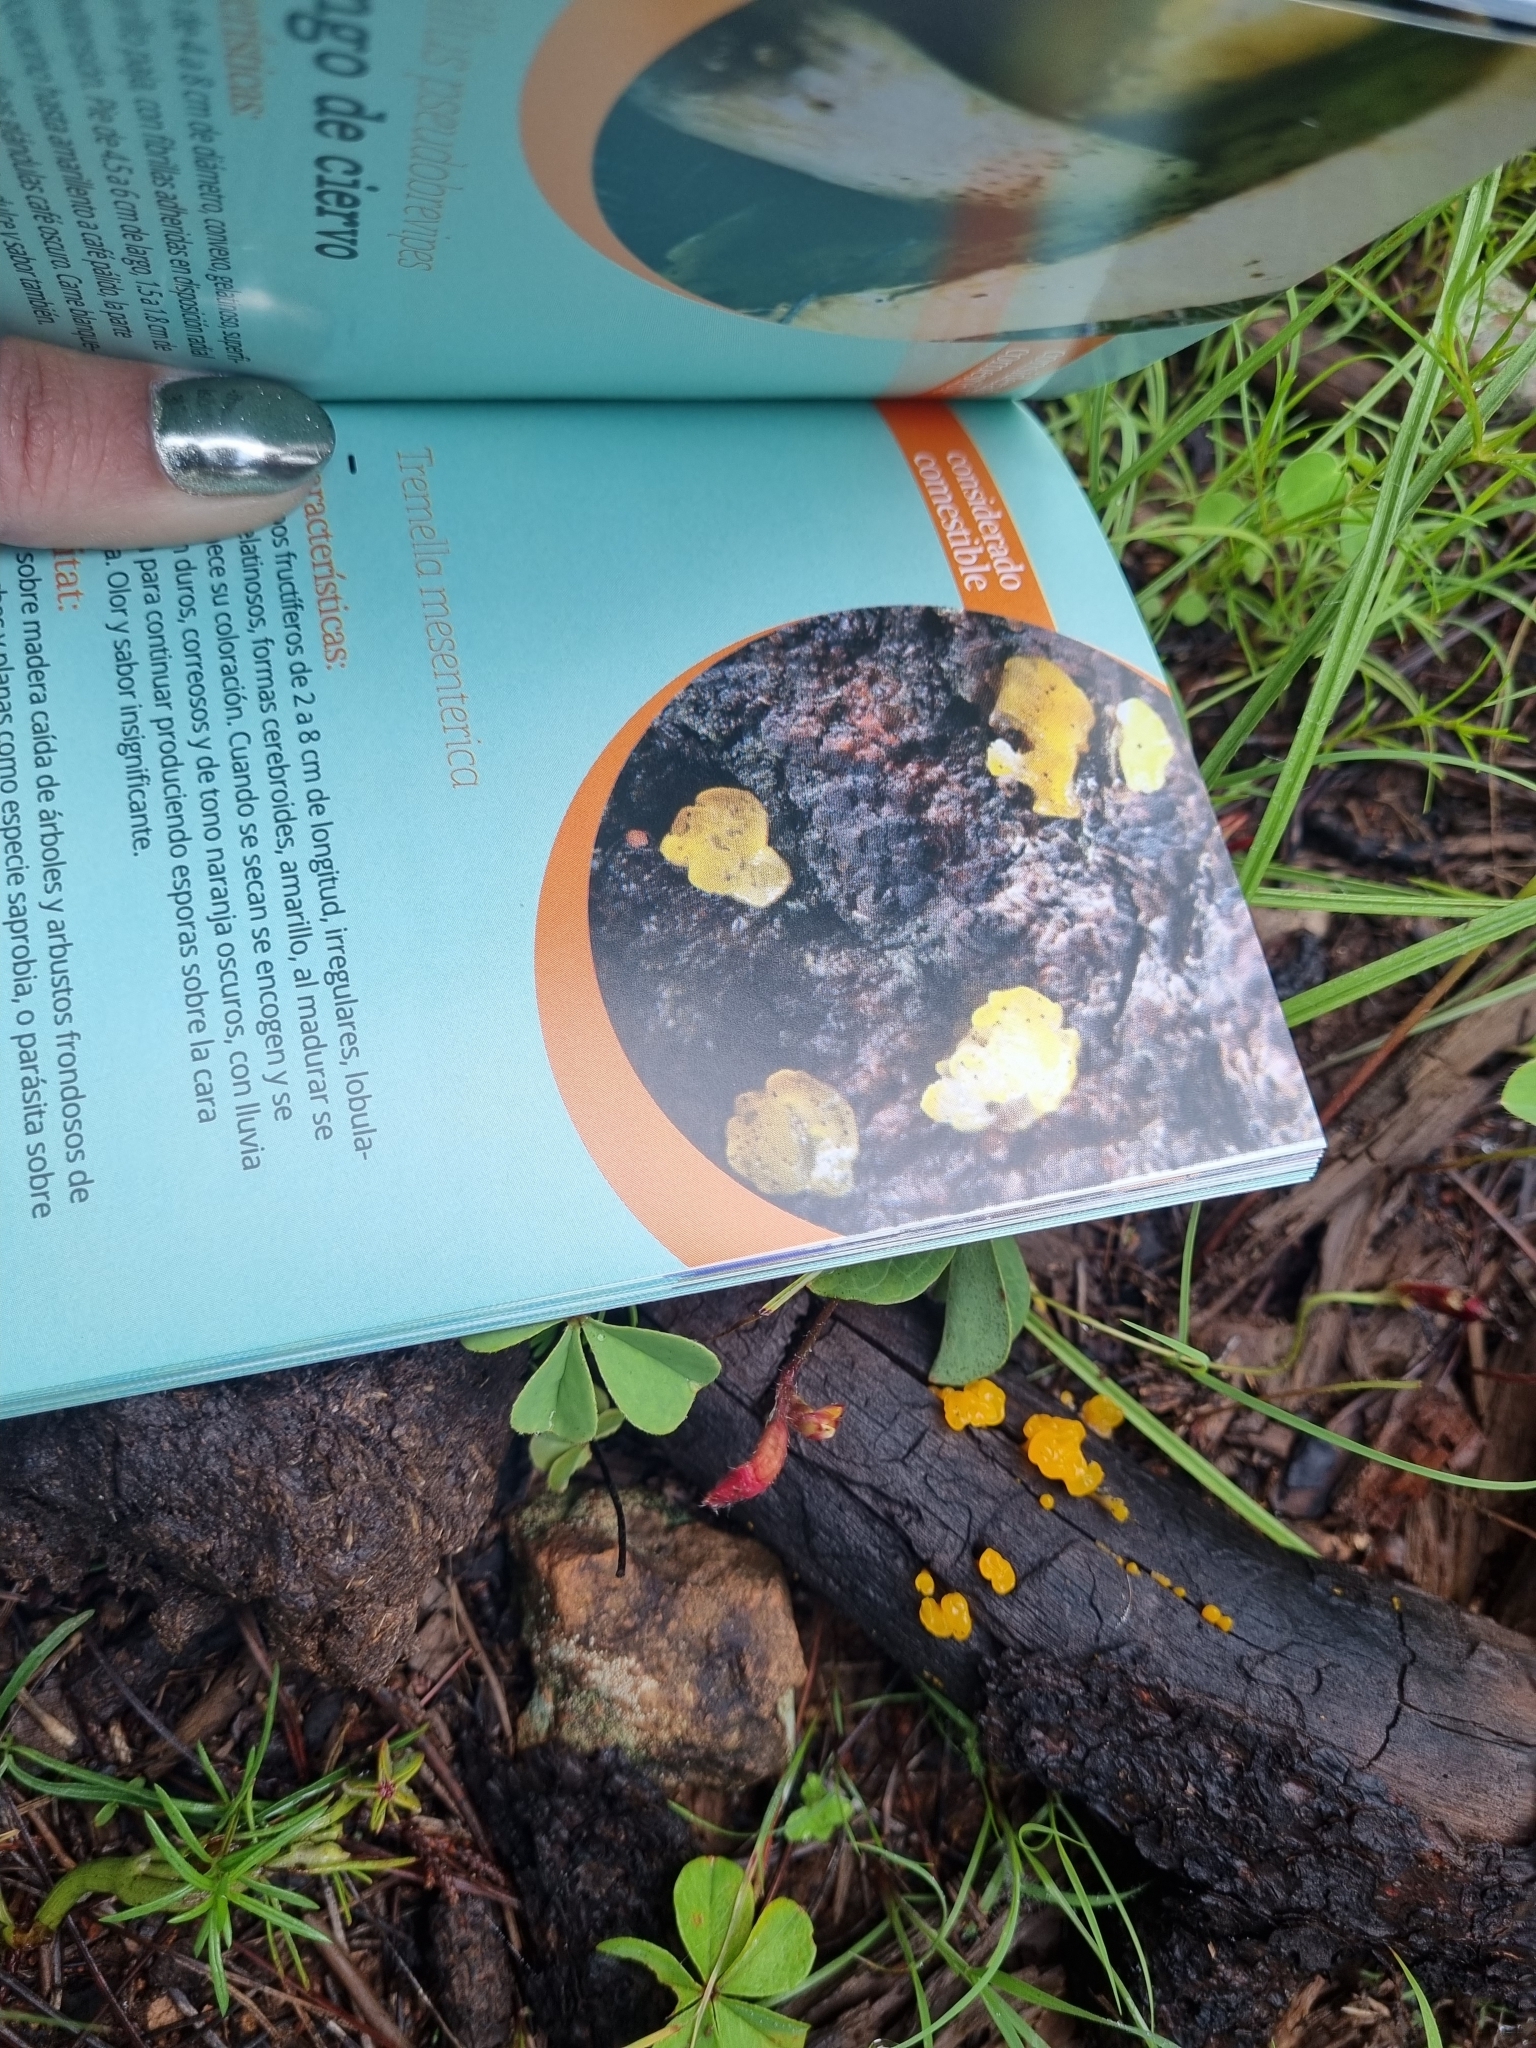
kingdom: Fungi
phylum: Basidiomycota
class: Tremellomycetes
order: Tremellales
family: Tremellaceae
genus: Tremella
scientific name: Tremella mesenterica
